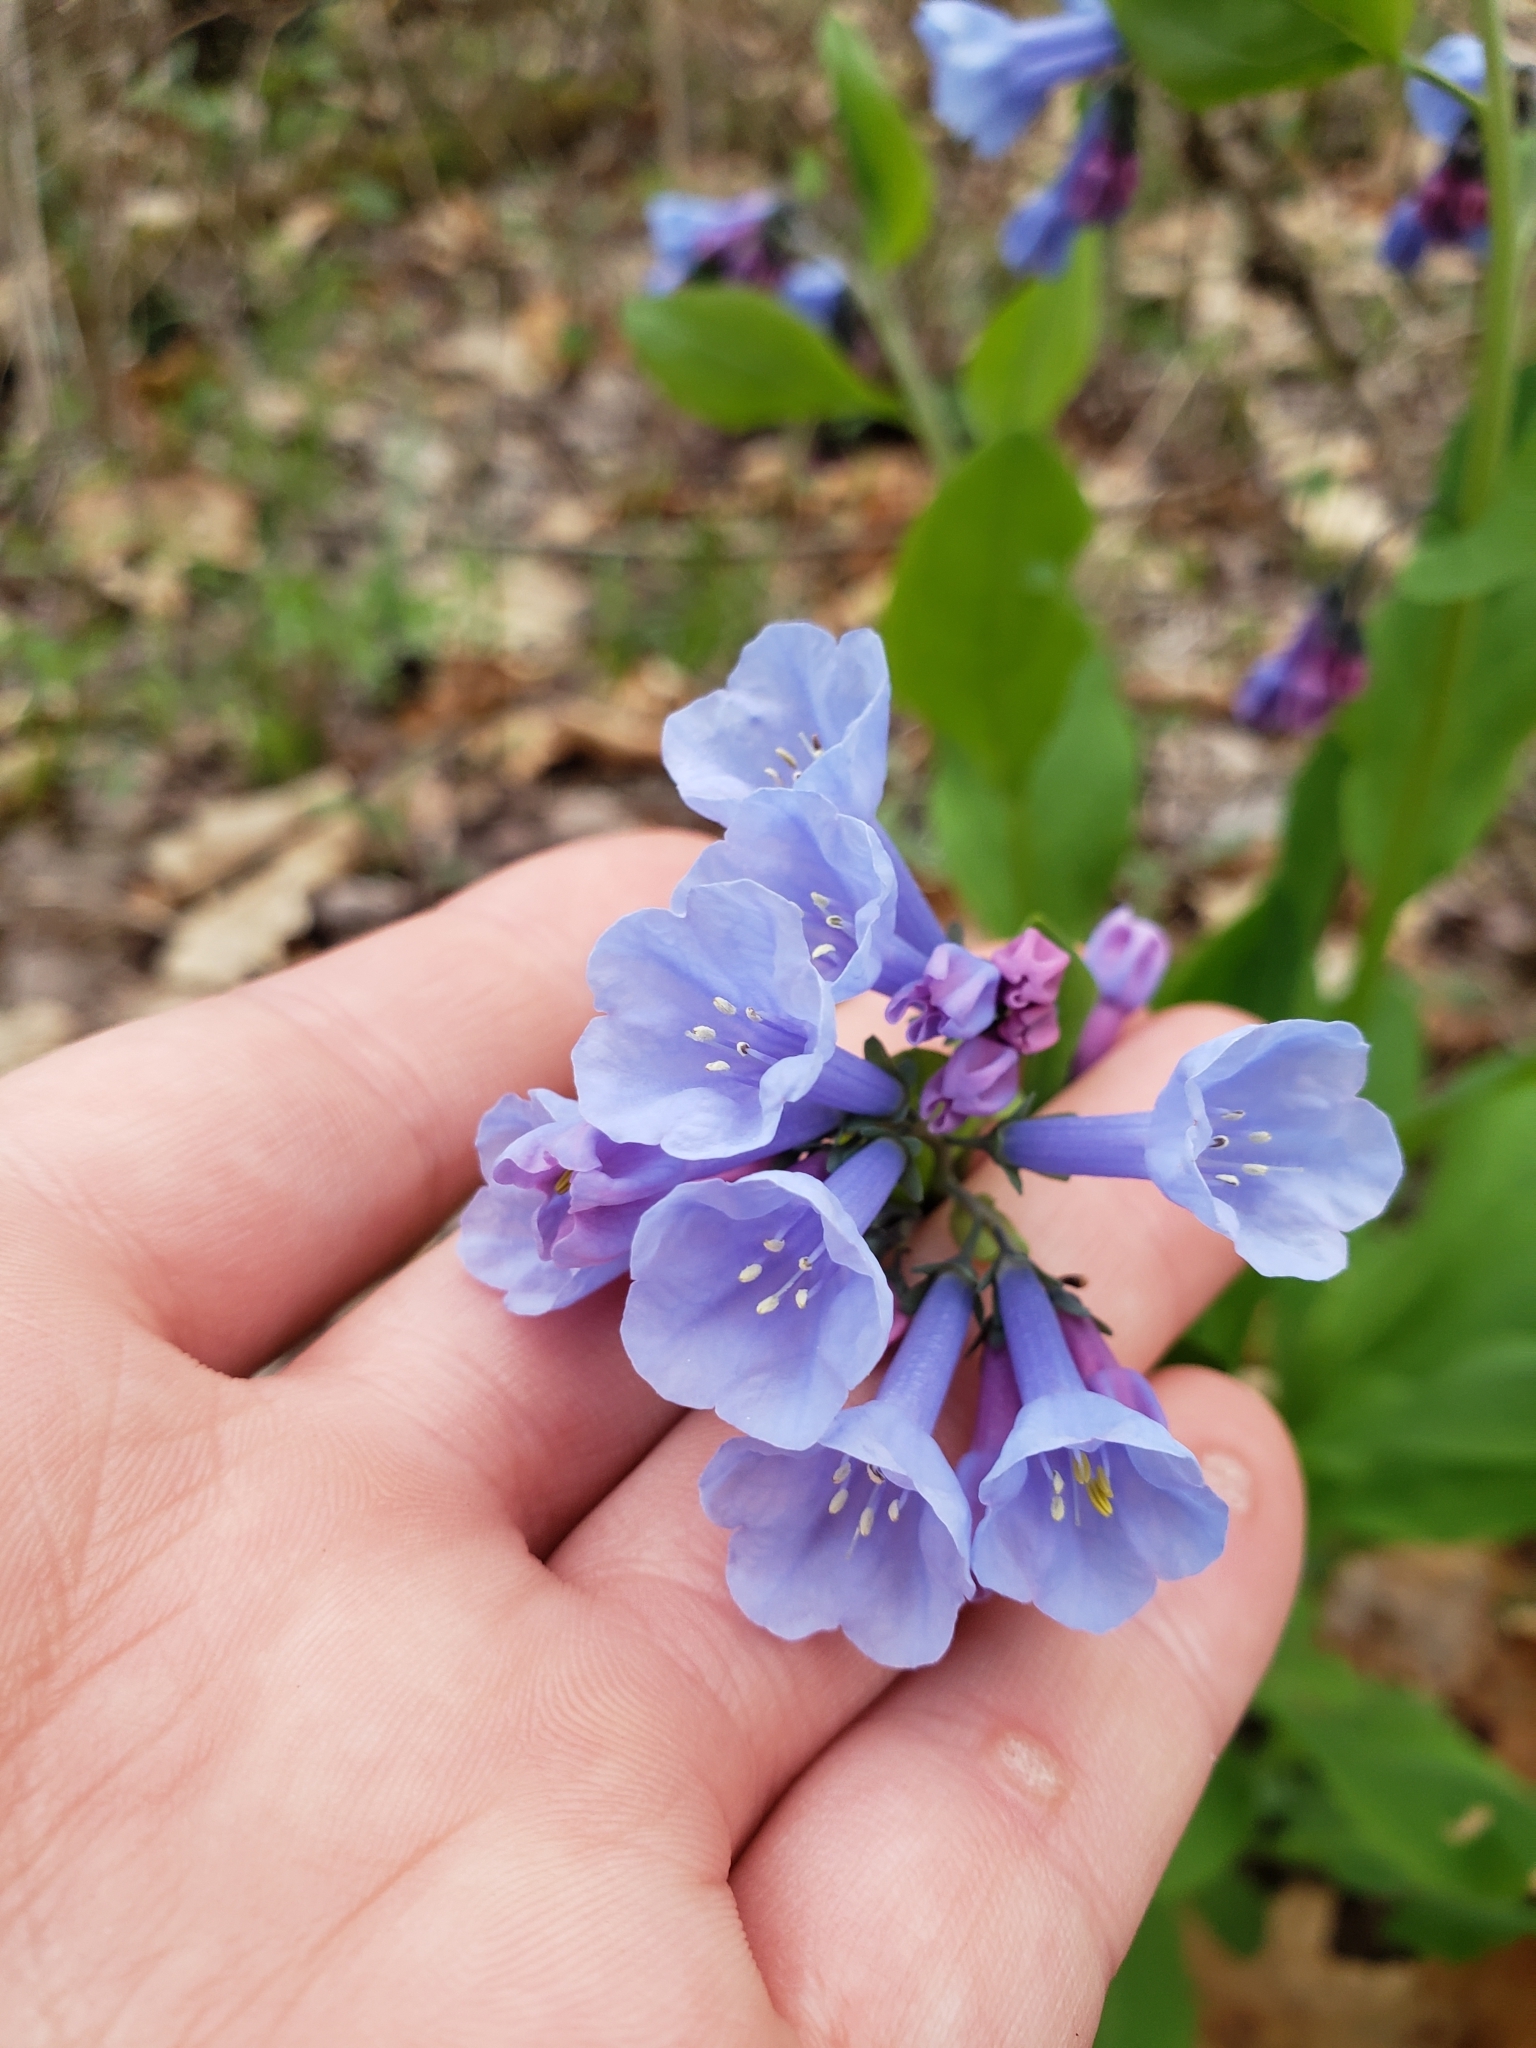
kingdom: Plantae
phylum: Tracheophyta
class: Magnoliopsida
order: Boraginales
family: Boraginaceae
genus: Mertensia
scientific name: Mertensia virginica
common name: Virginia bluebells
